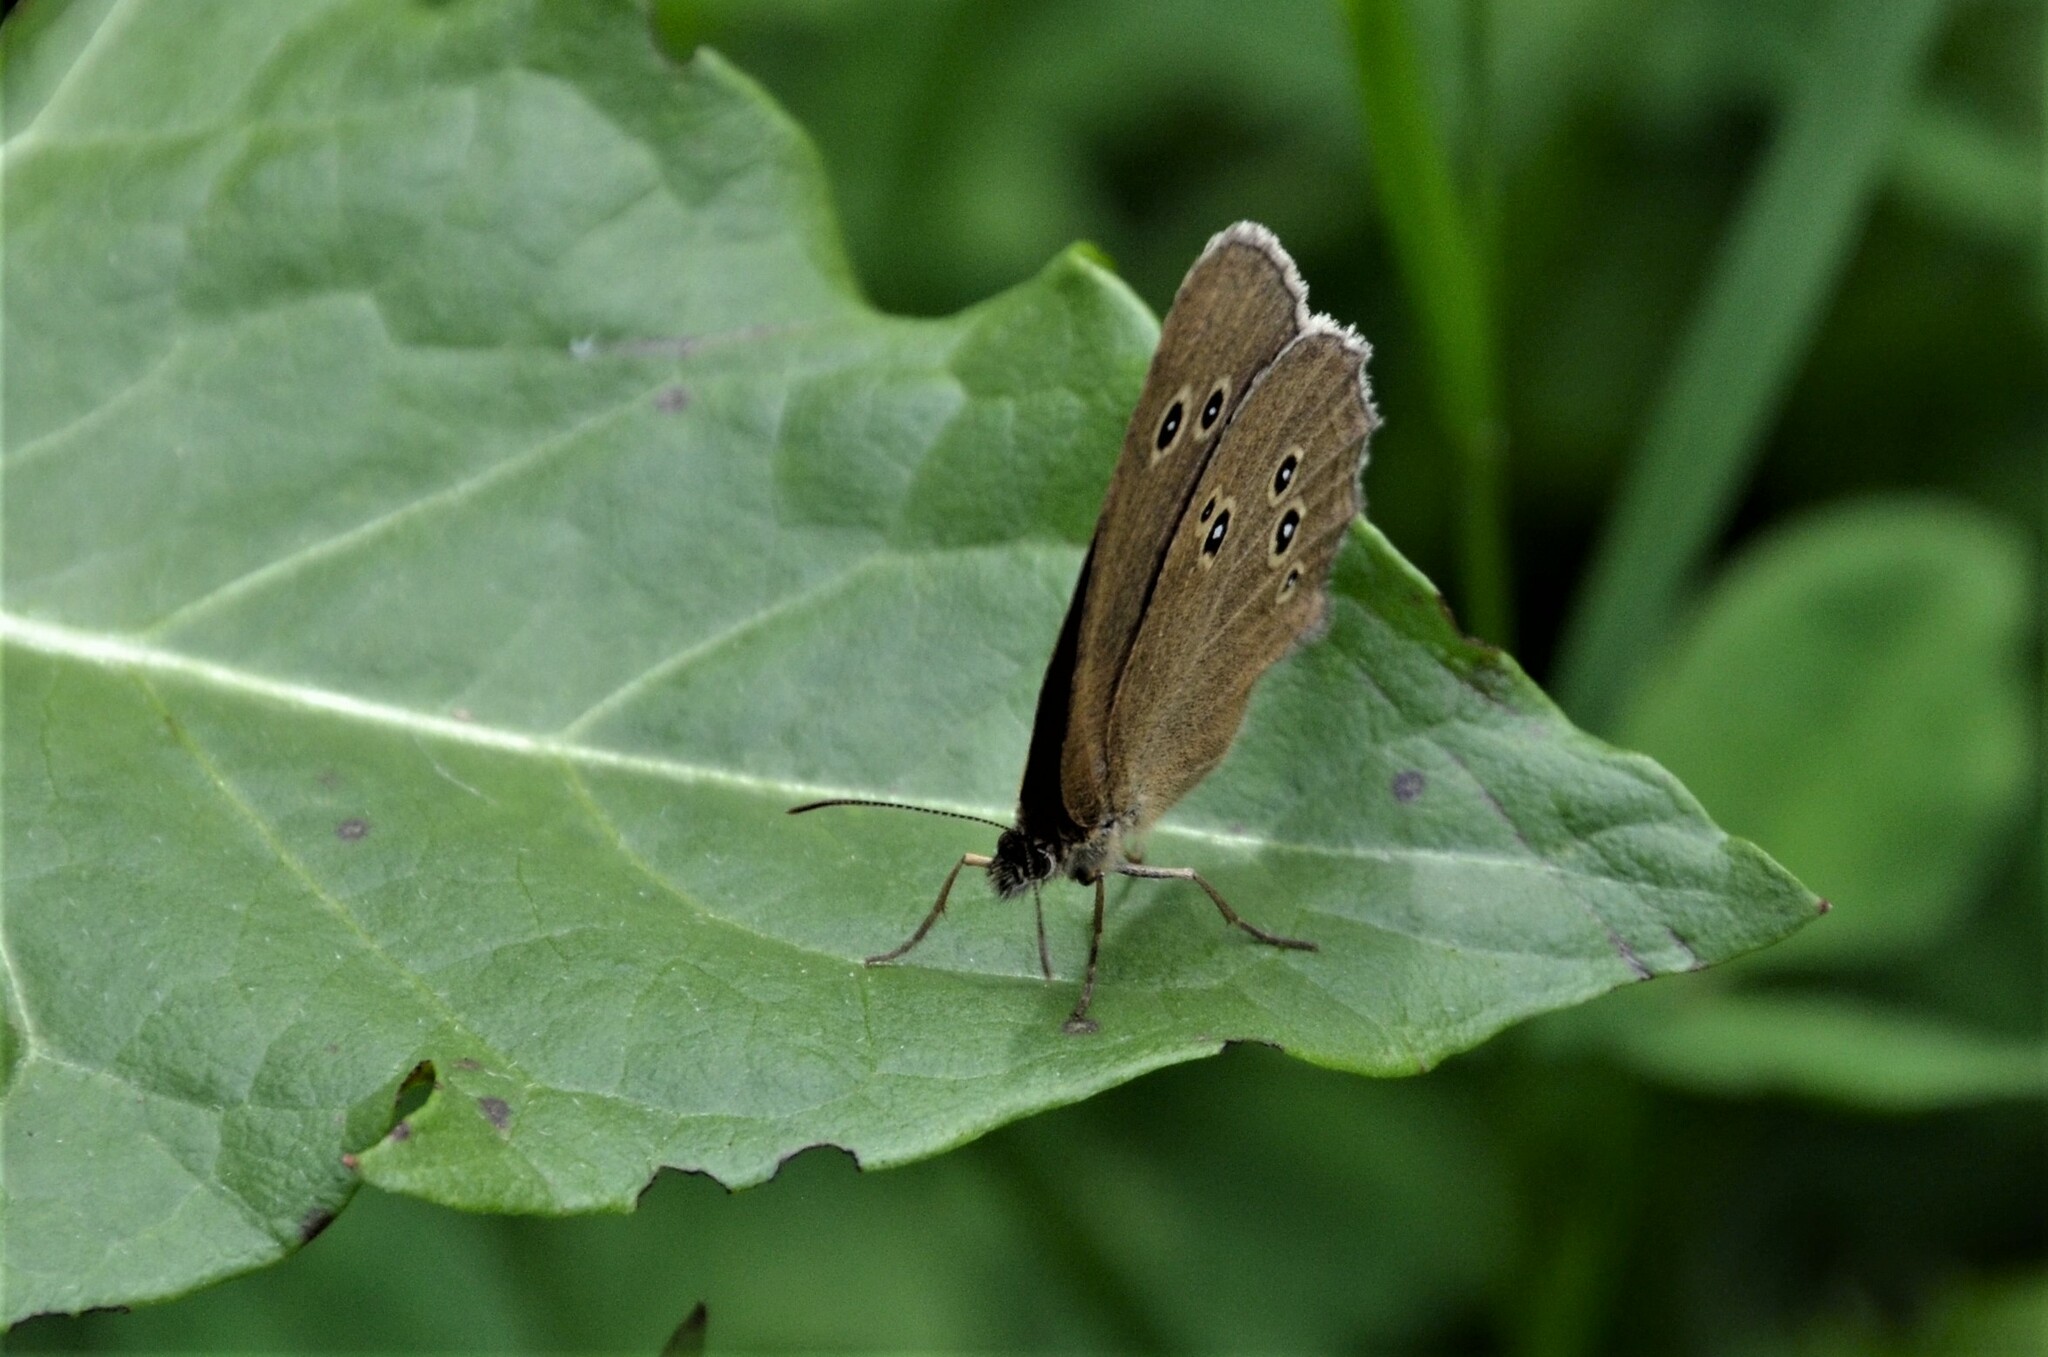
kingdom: Animalia
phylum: Arthropoda
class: Insecta
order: Lepidoptera
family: Nymphalidae
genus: Aphantopus
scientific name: Aphantopus hyperantus
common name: Ringlet
